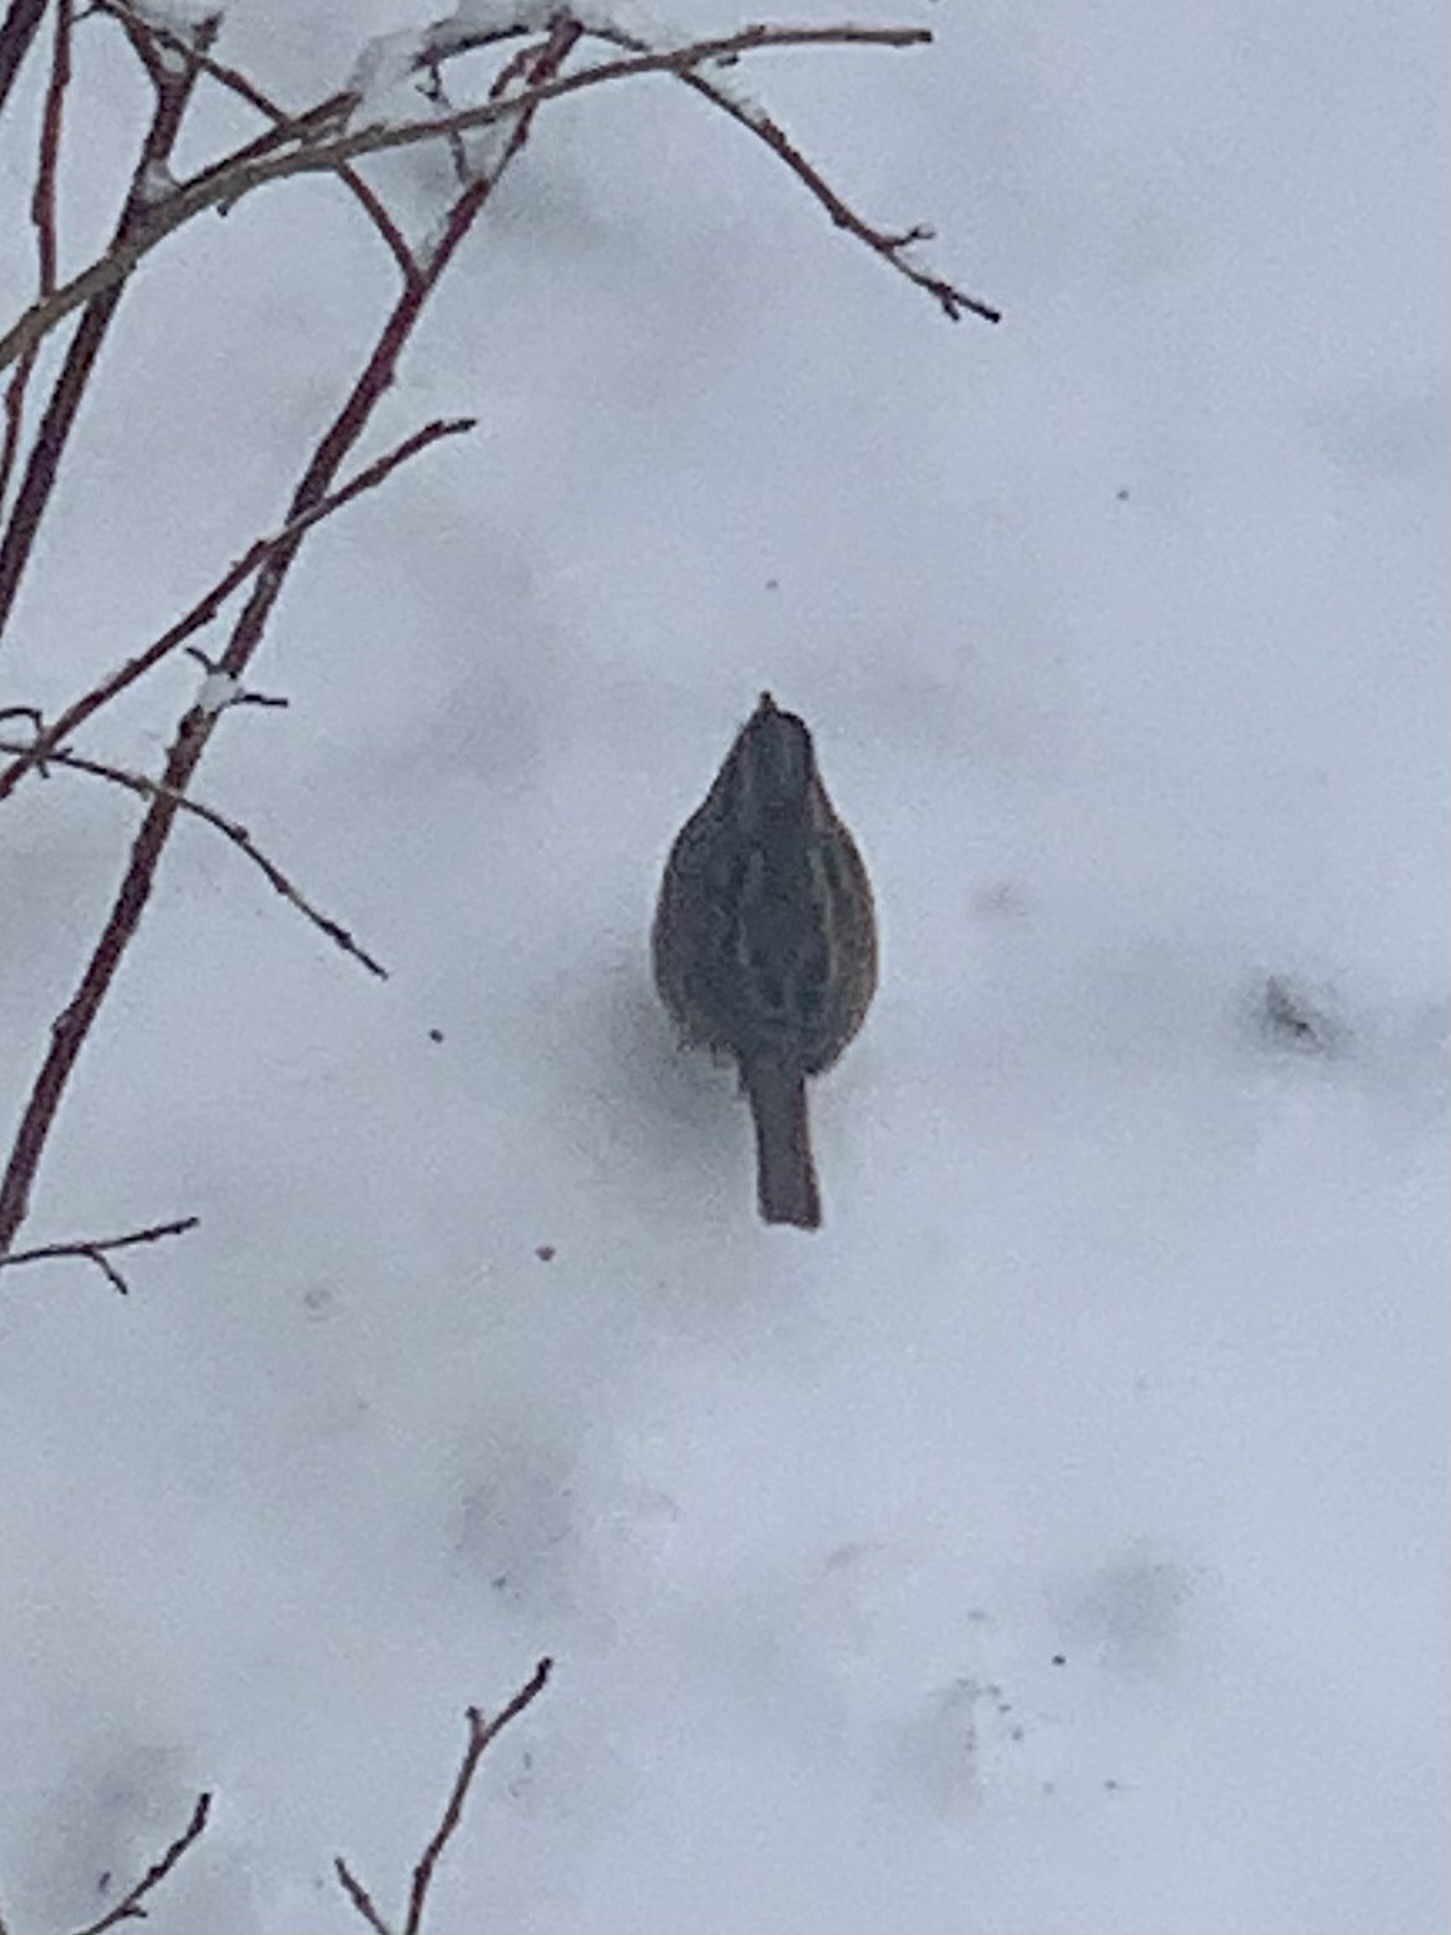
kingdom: Animalia
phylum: Chordata
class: Aves
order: Passeriformes
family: Passerellidae
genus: Zonotrichia
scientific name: Zonotrichia albicollis
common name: White-throated sparrow
